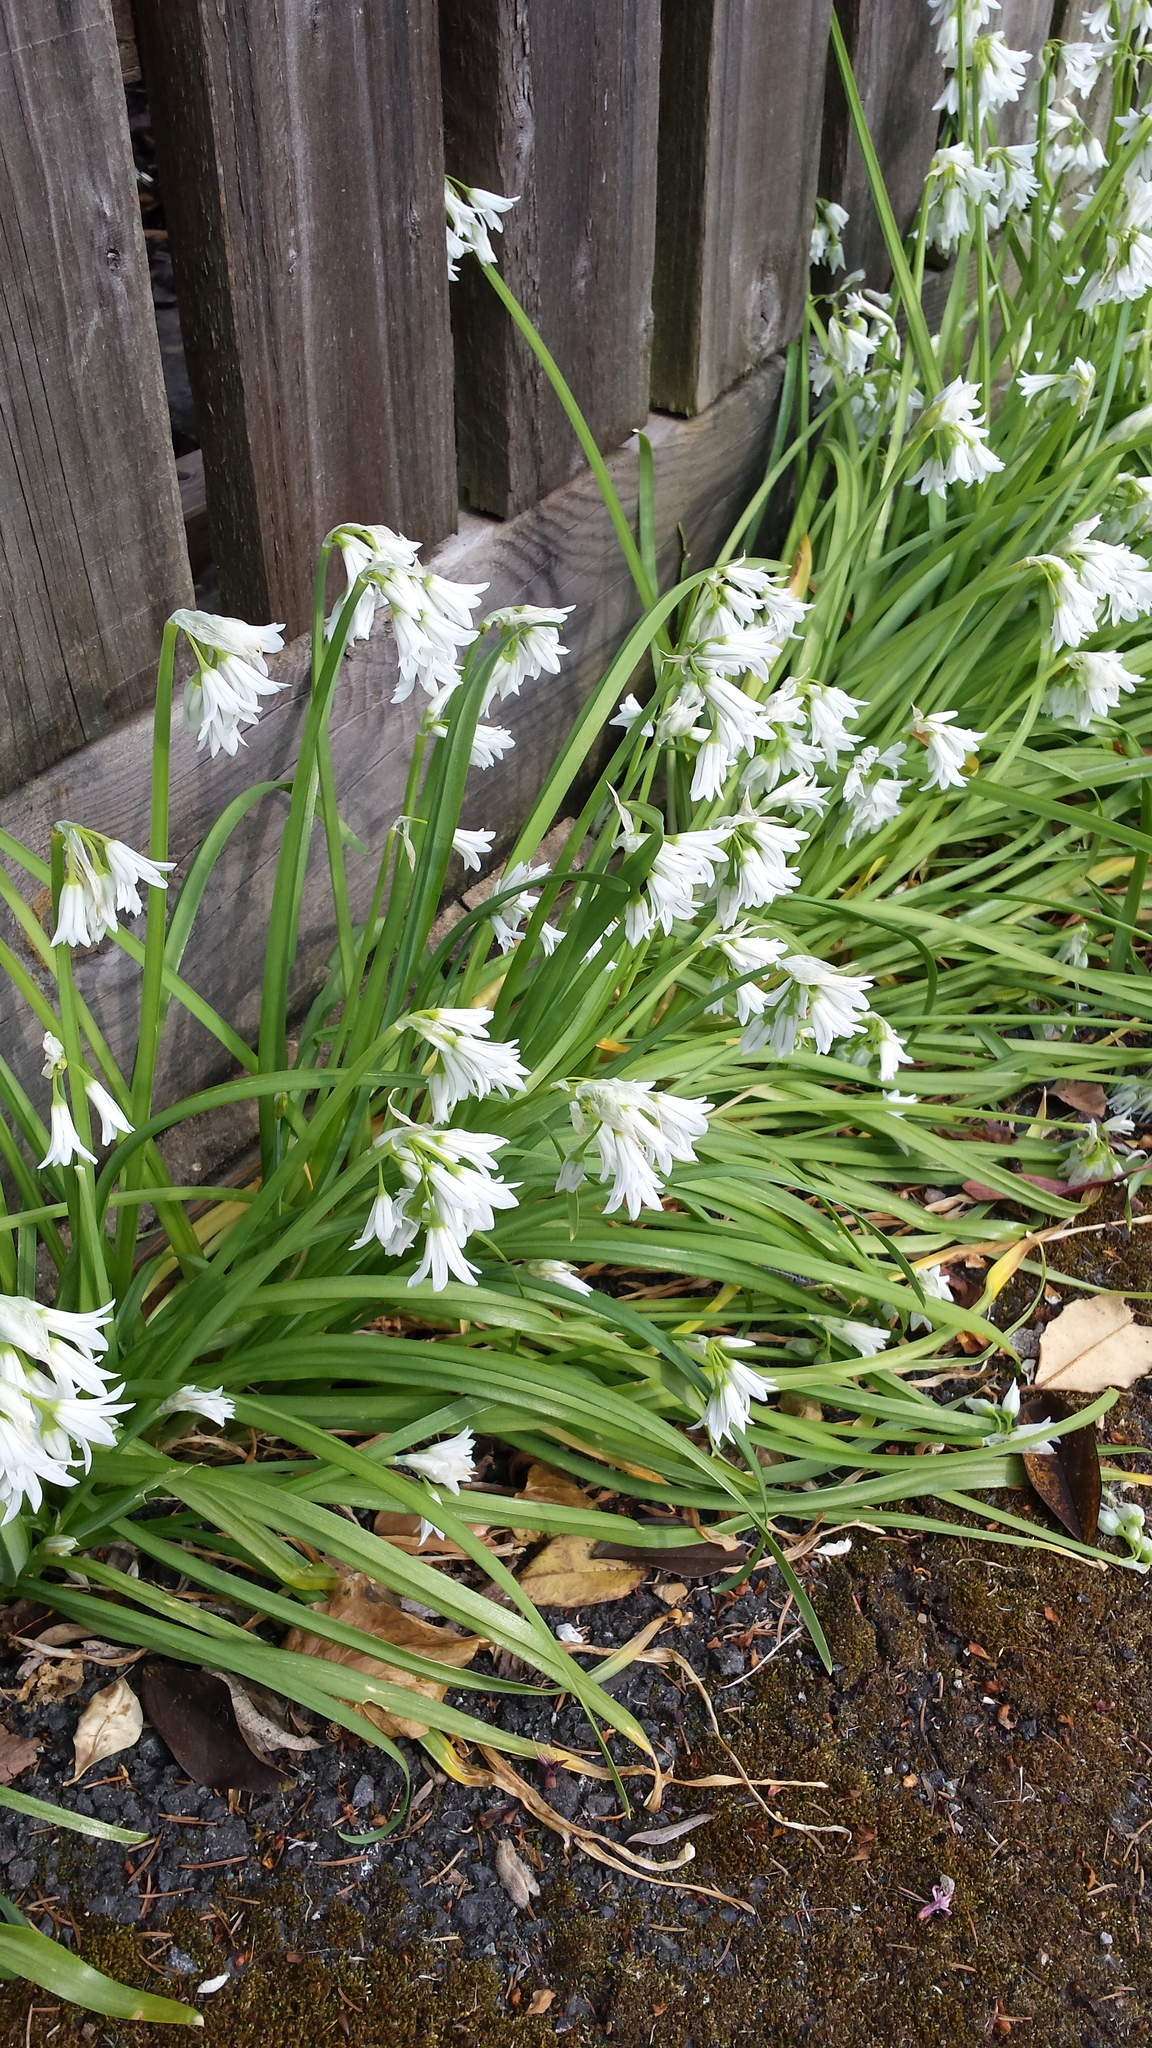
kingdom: Plantae
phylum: Tracheophyta
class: Liliopsida
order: Asparagales
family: Amaryllidaceae
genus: Allium
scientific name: Allium triquetrum
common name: Three-cornered garlic
